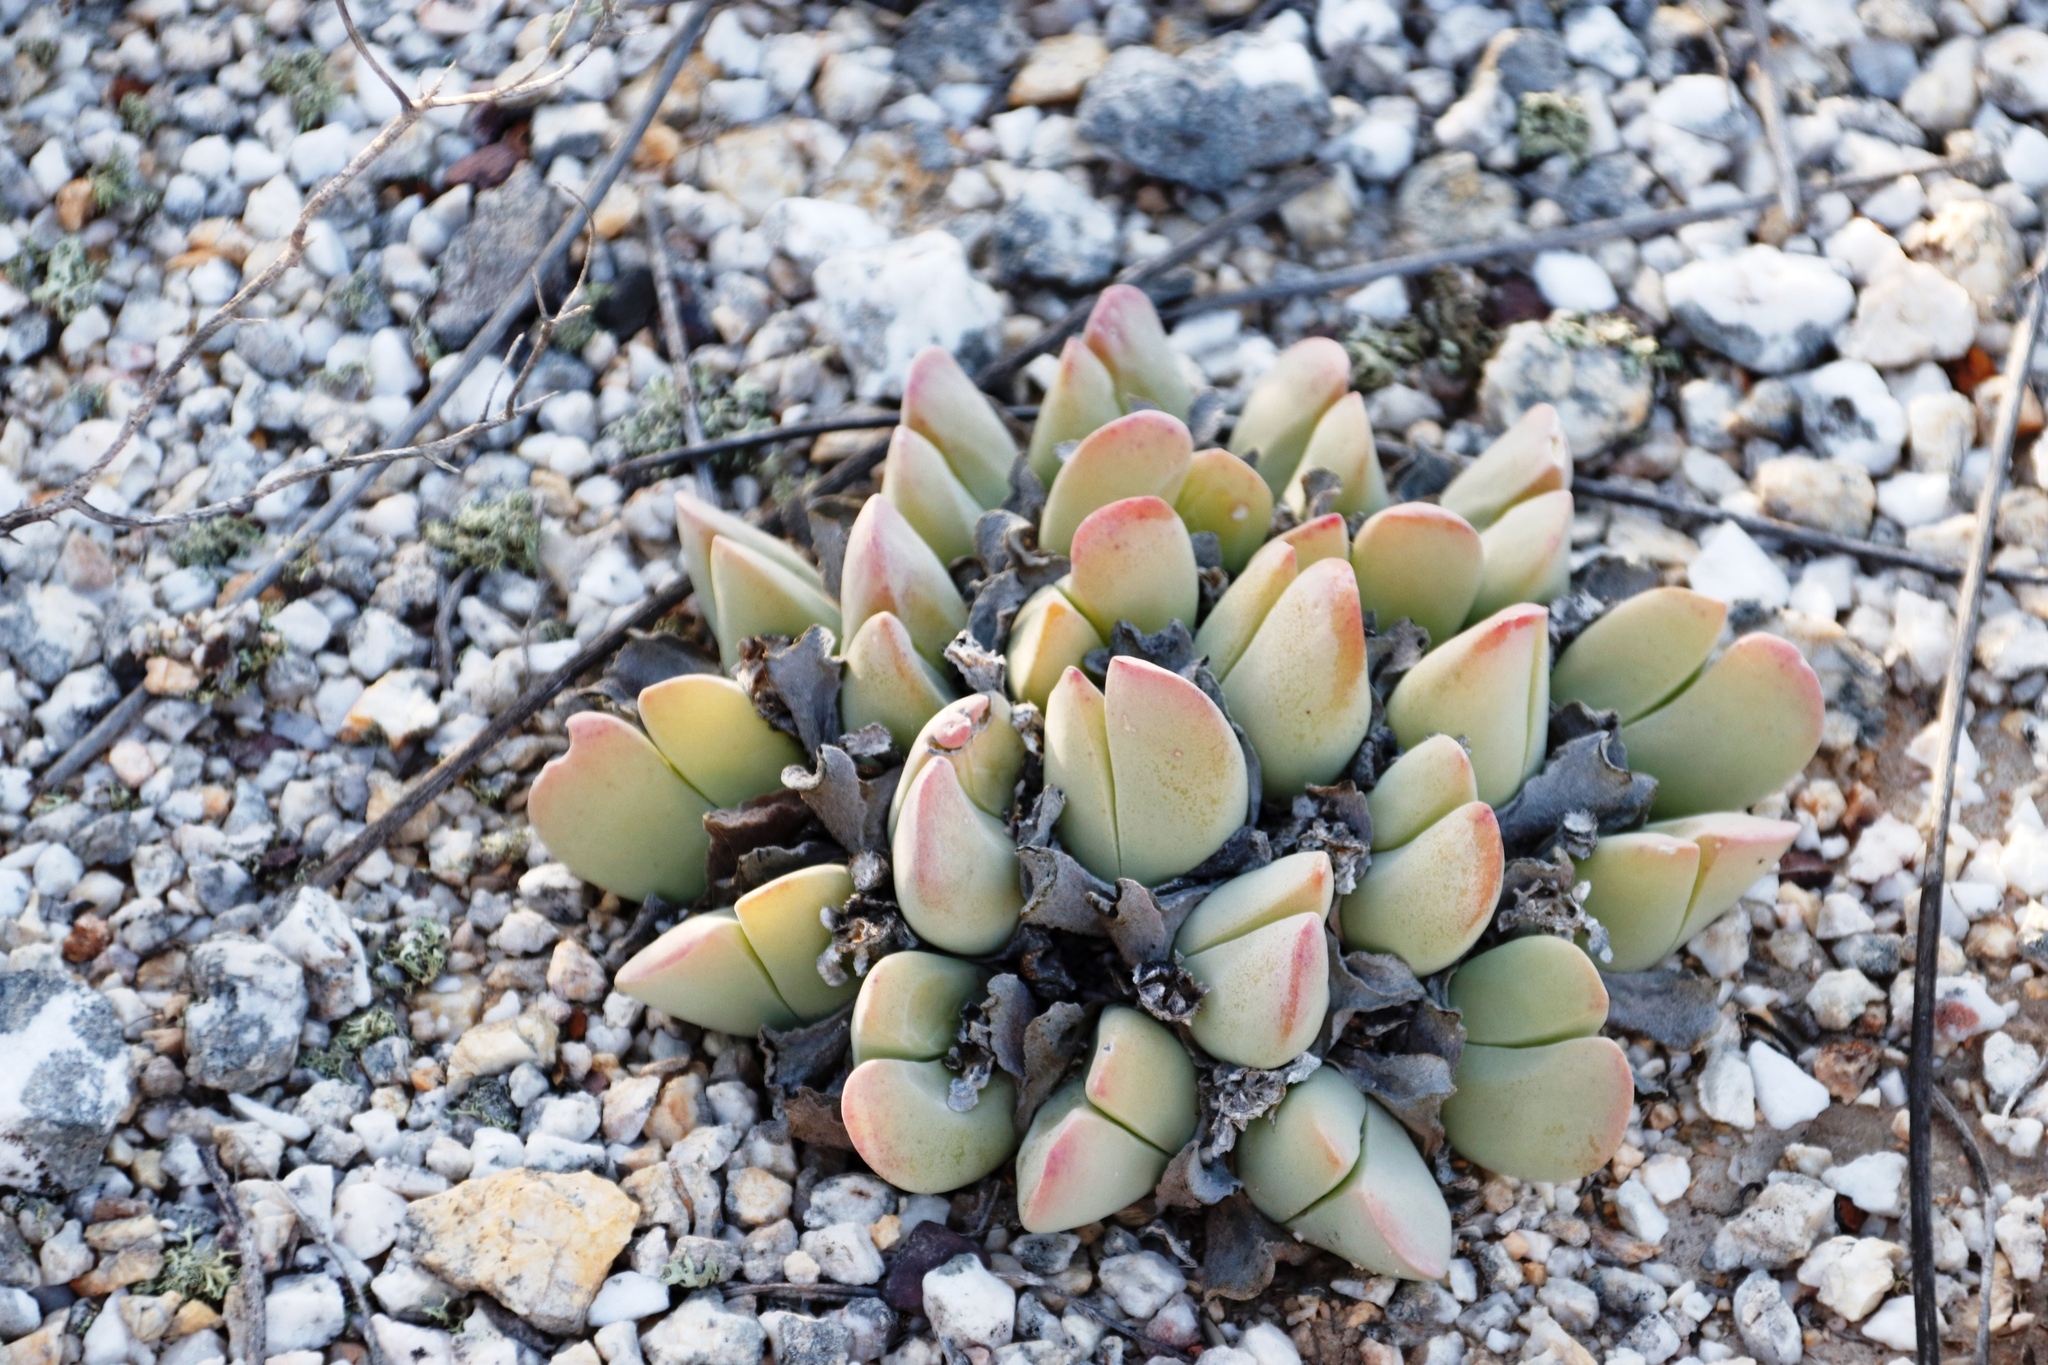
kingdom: Plantae
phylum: Tracheophyta
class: Magnoliopsida
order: Caryophyllales
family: Aizoaceae
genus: Gibbaeum
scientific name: Gibbaeum hartmannianum
